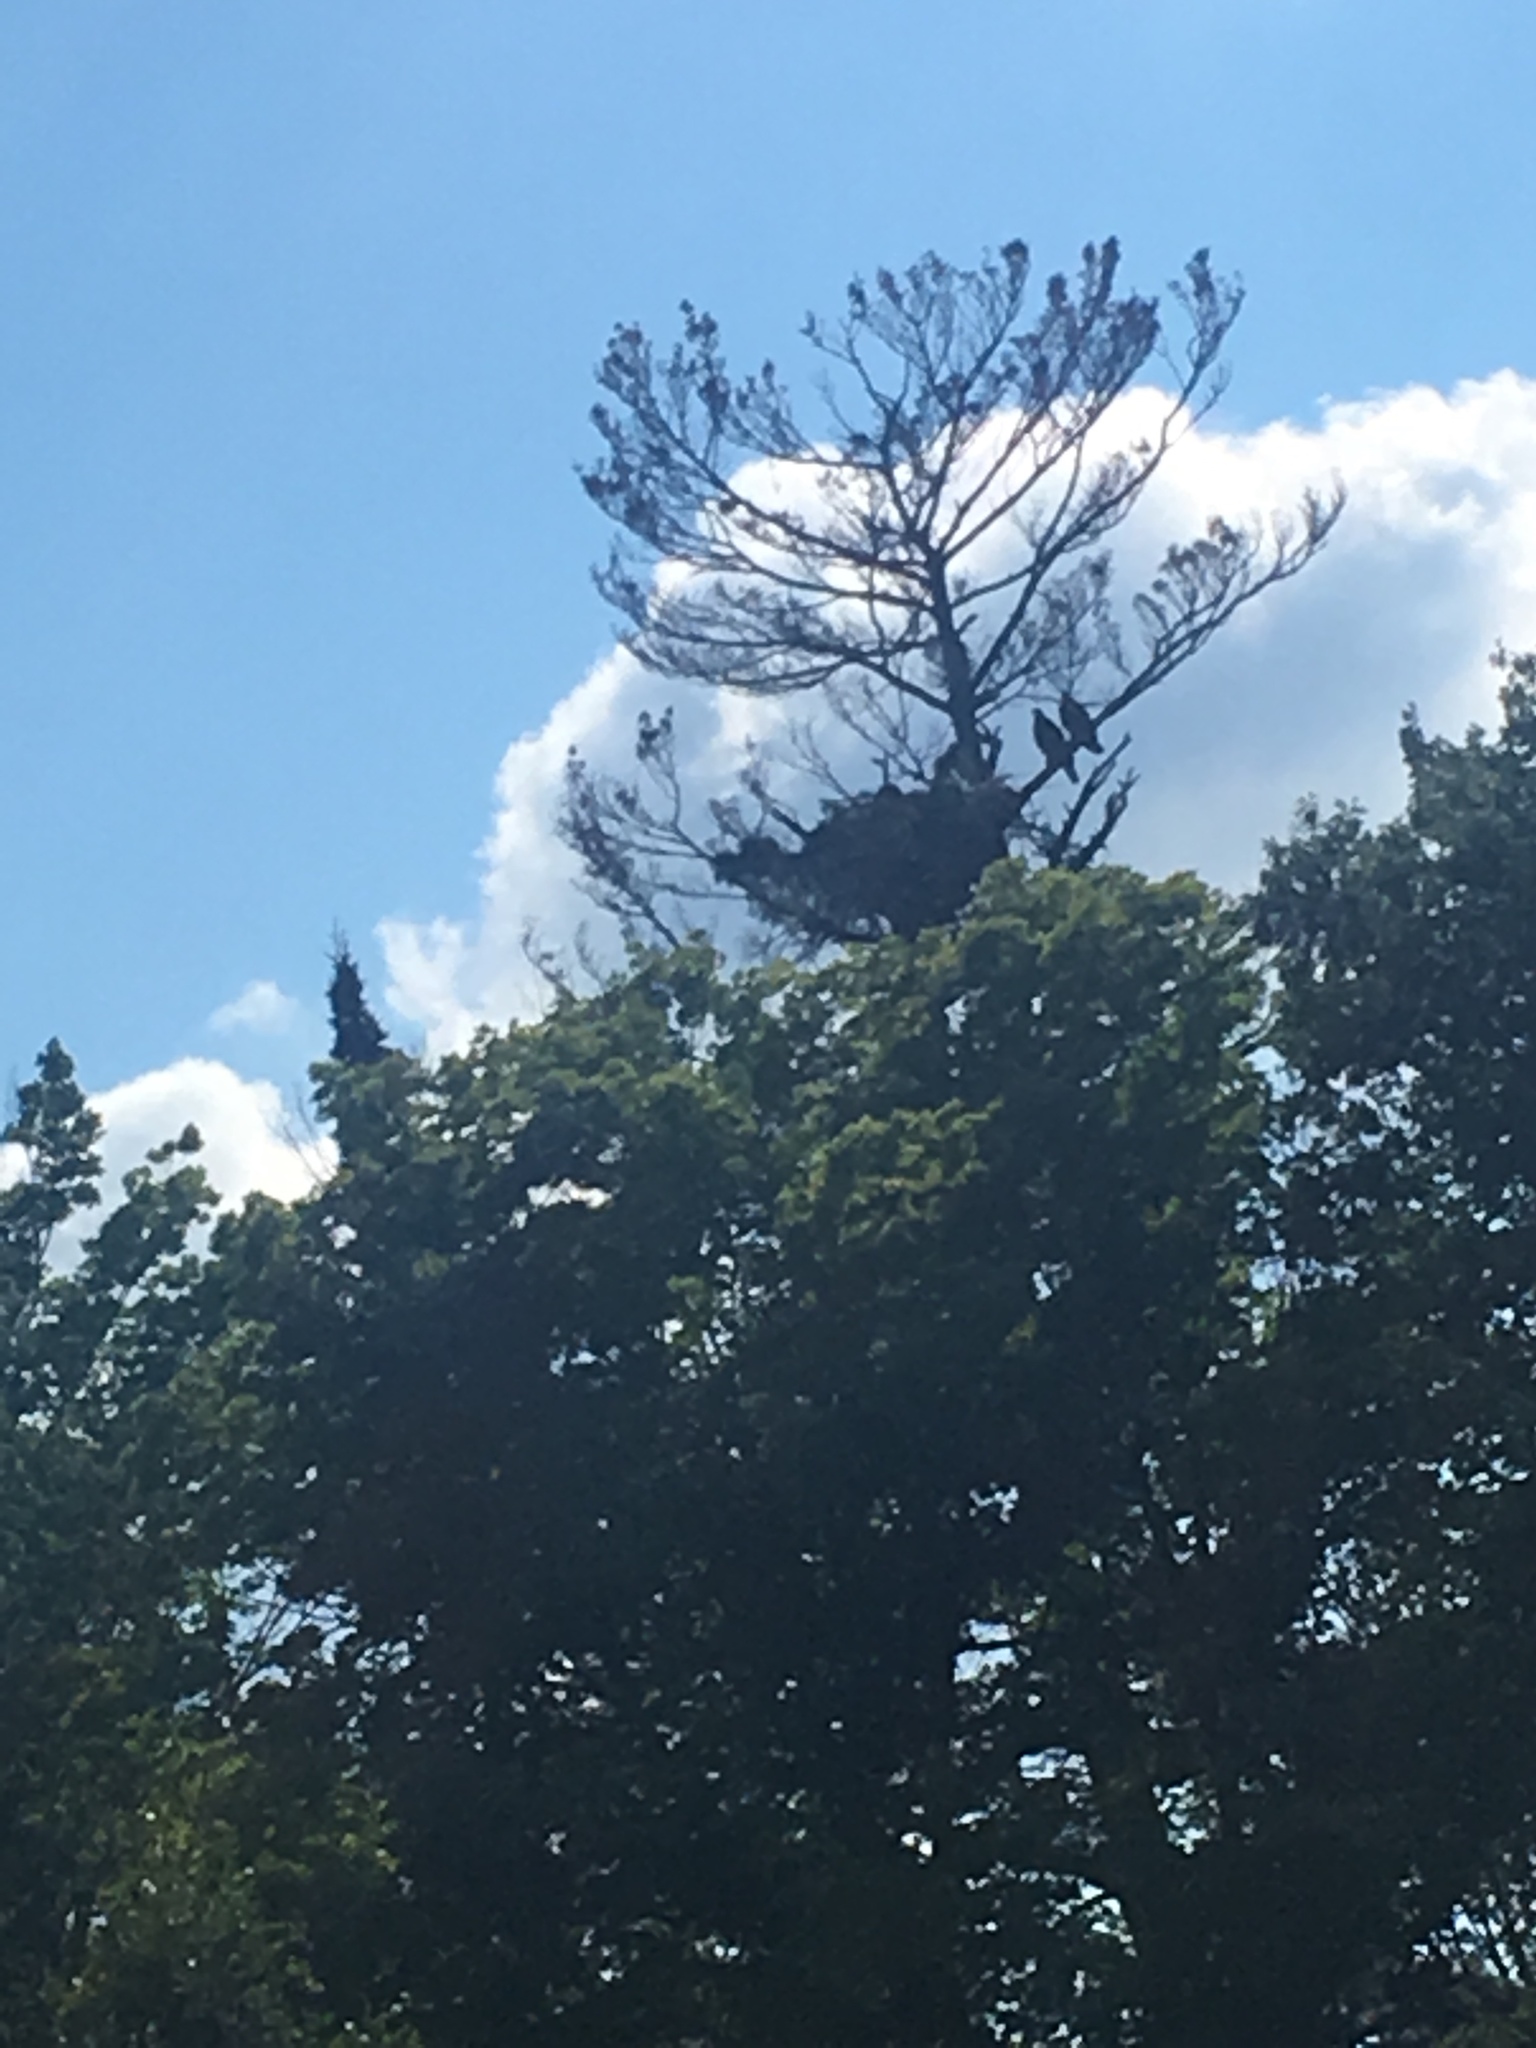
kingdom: Animalia
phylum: Chordata
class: Aves
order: Accipitriformes
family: Accipitridae
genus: Haliaeetus
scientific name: Haliaeetus leucocephalus
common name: Bald eagle
